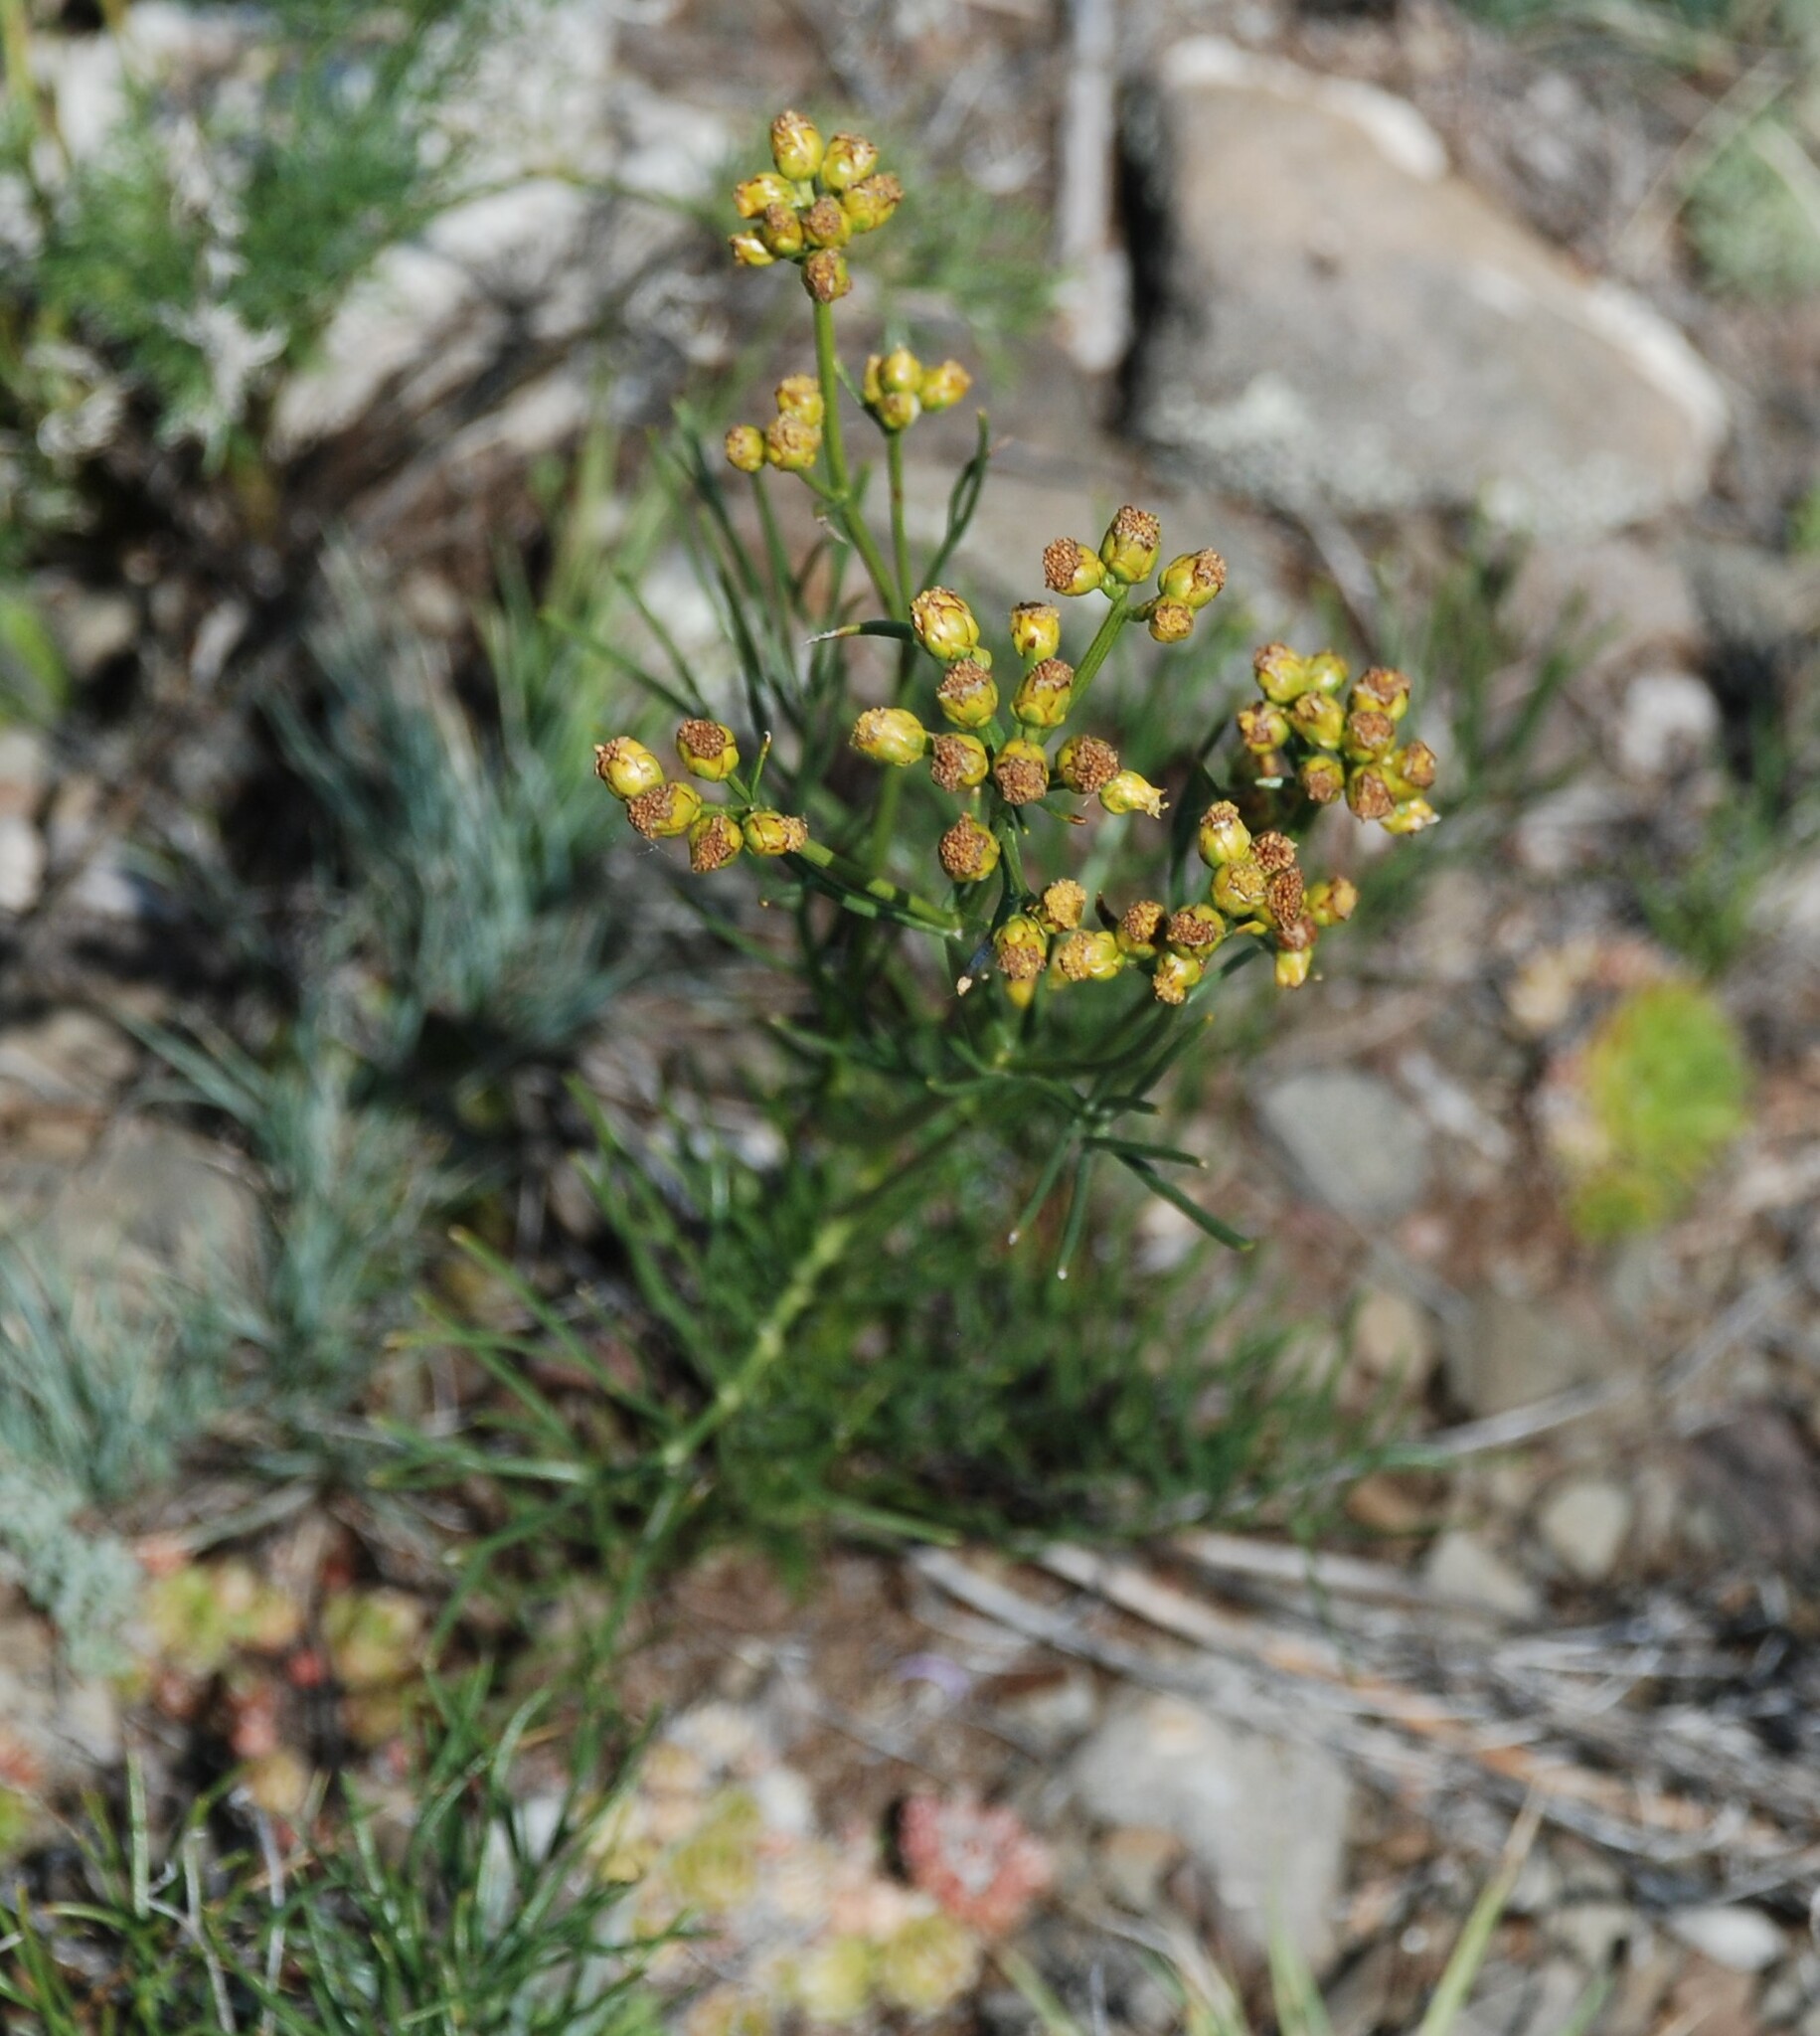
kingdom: Plantae
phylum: Tracheophyta
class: Magnoliopsida
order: Asterales
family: Asteraceae
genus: Filifolium
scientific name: Filifolium sibiricum
